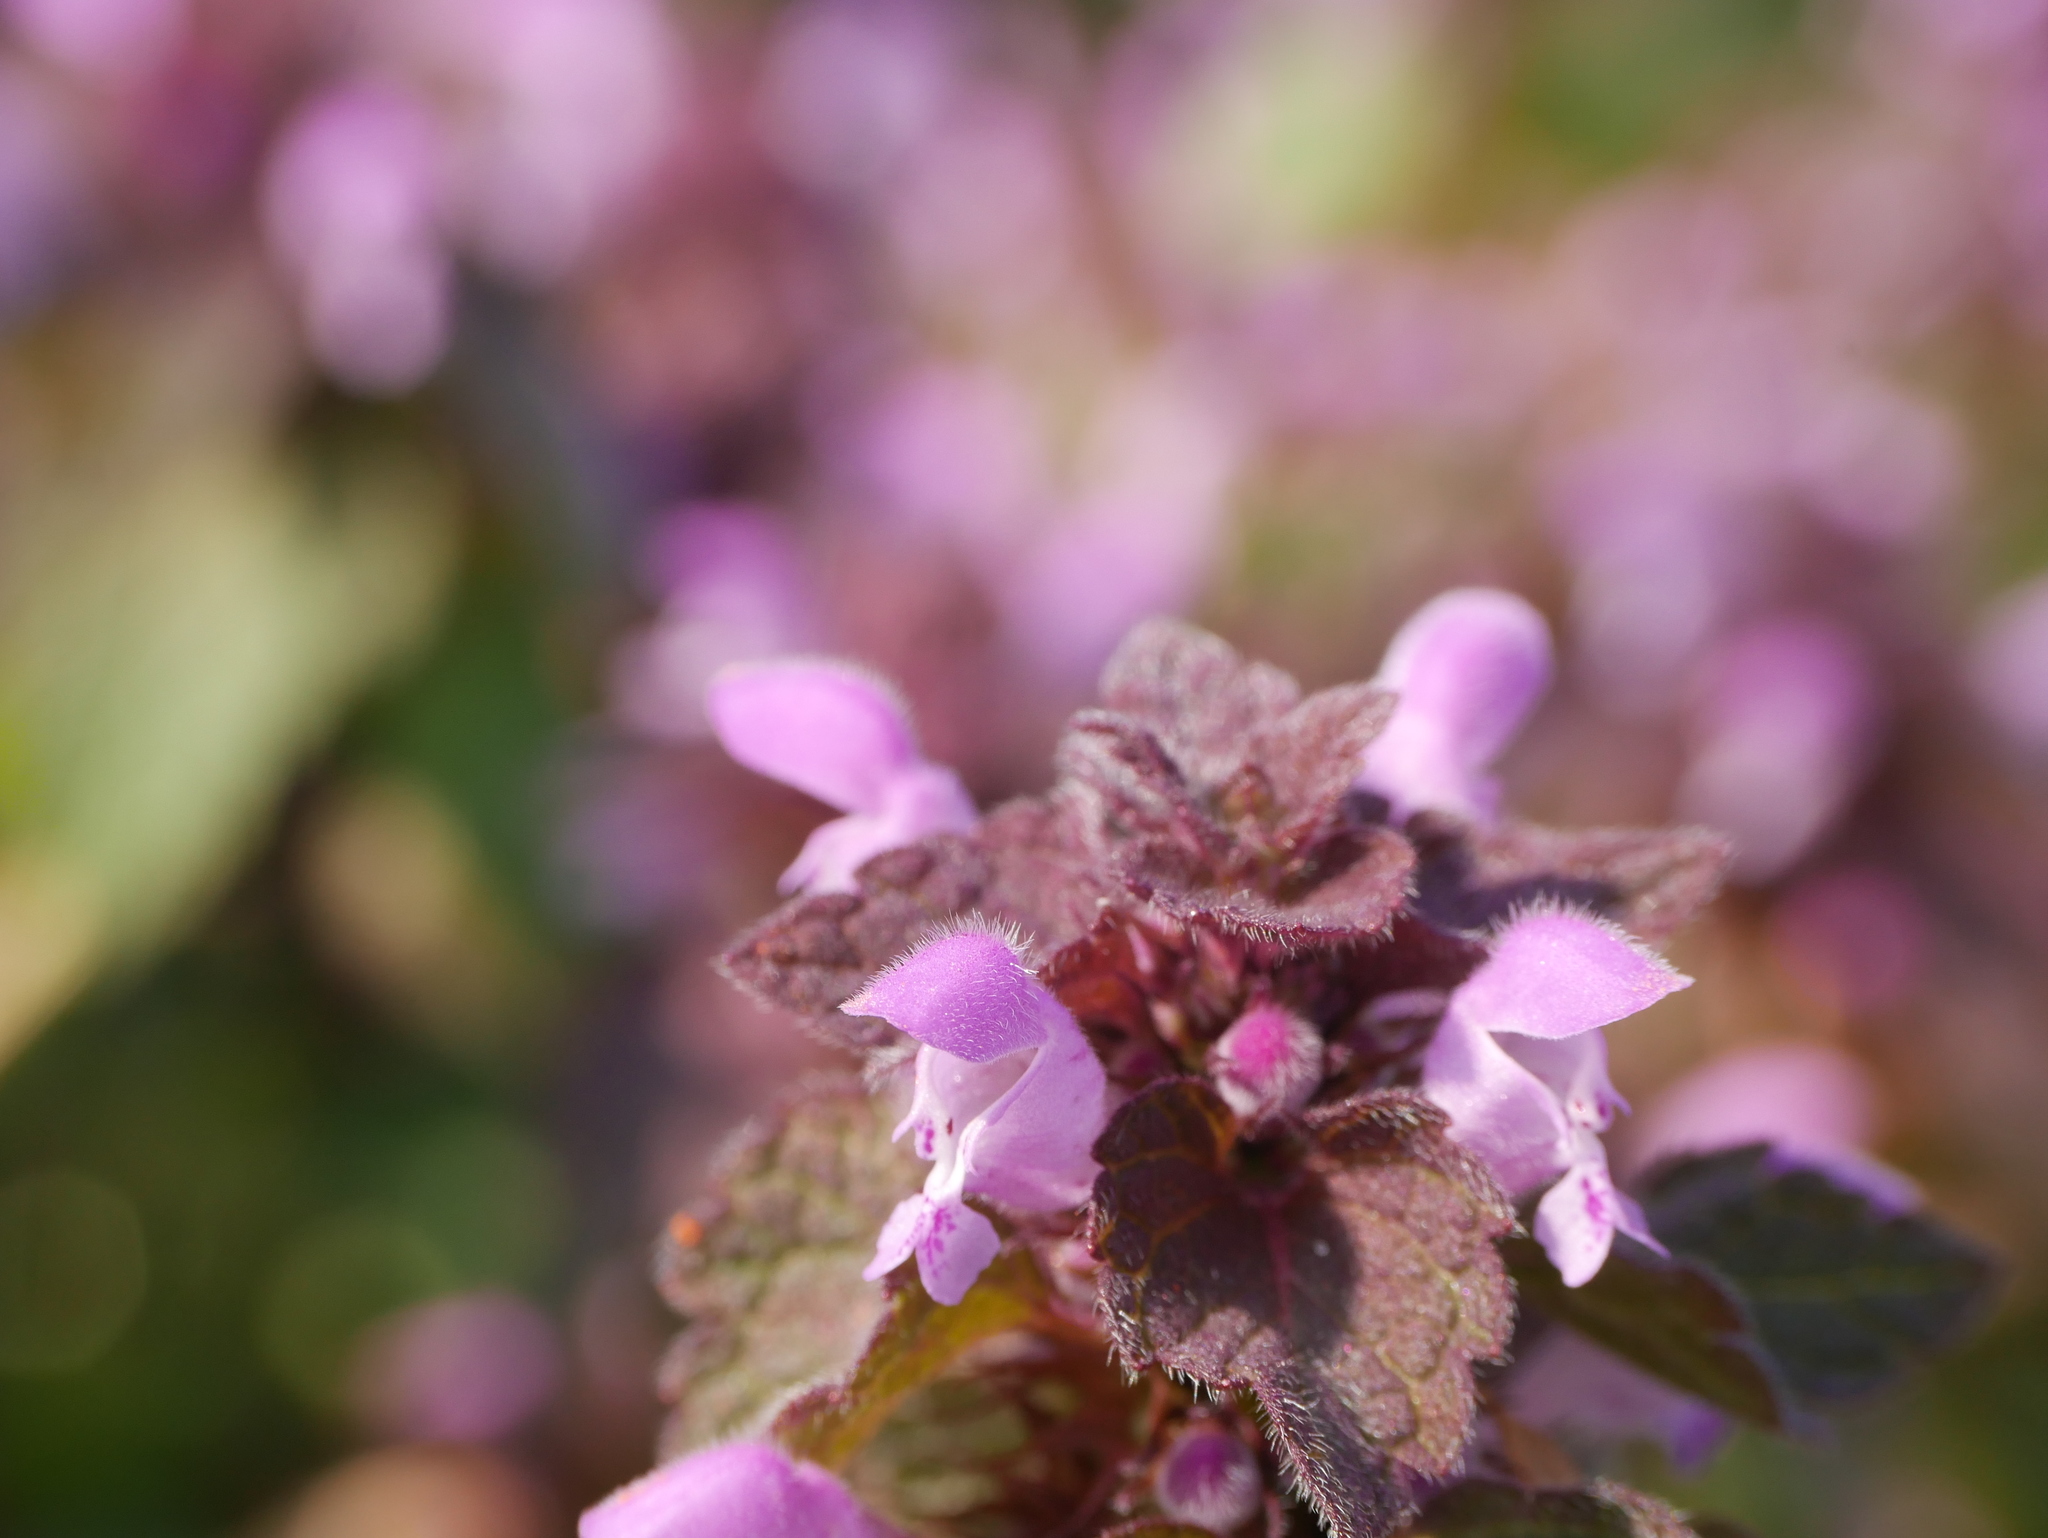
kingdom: Plantae
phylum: Tracheophyta
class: Magnoliopsida
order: Lamiales
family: Lamiaceae
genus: Lamium
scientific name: Lamium purpureum
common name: Red dead-nettle
